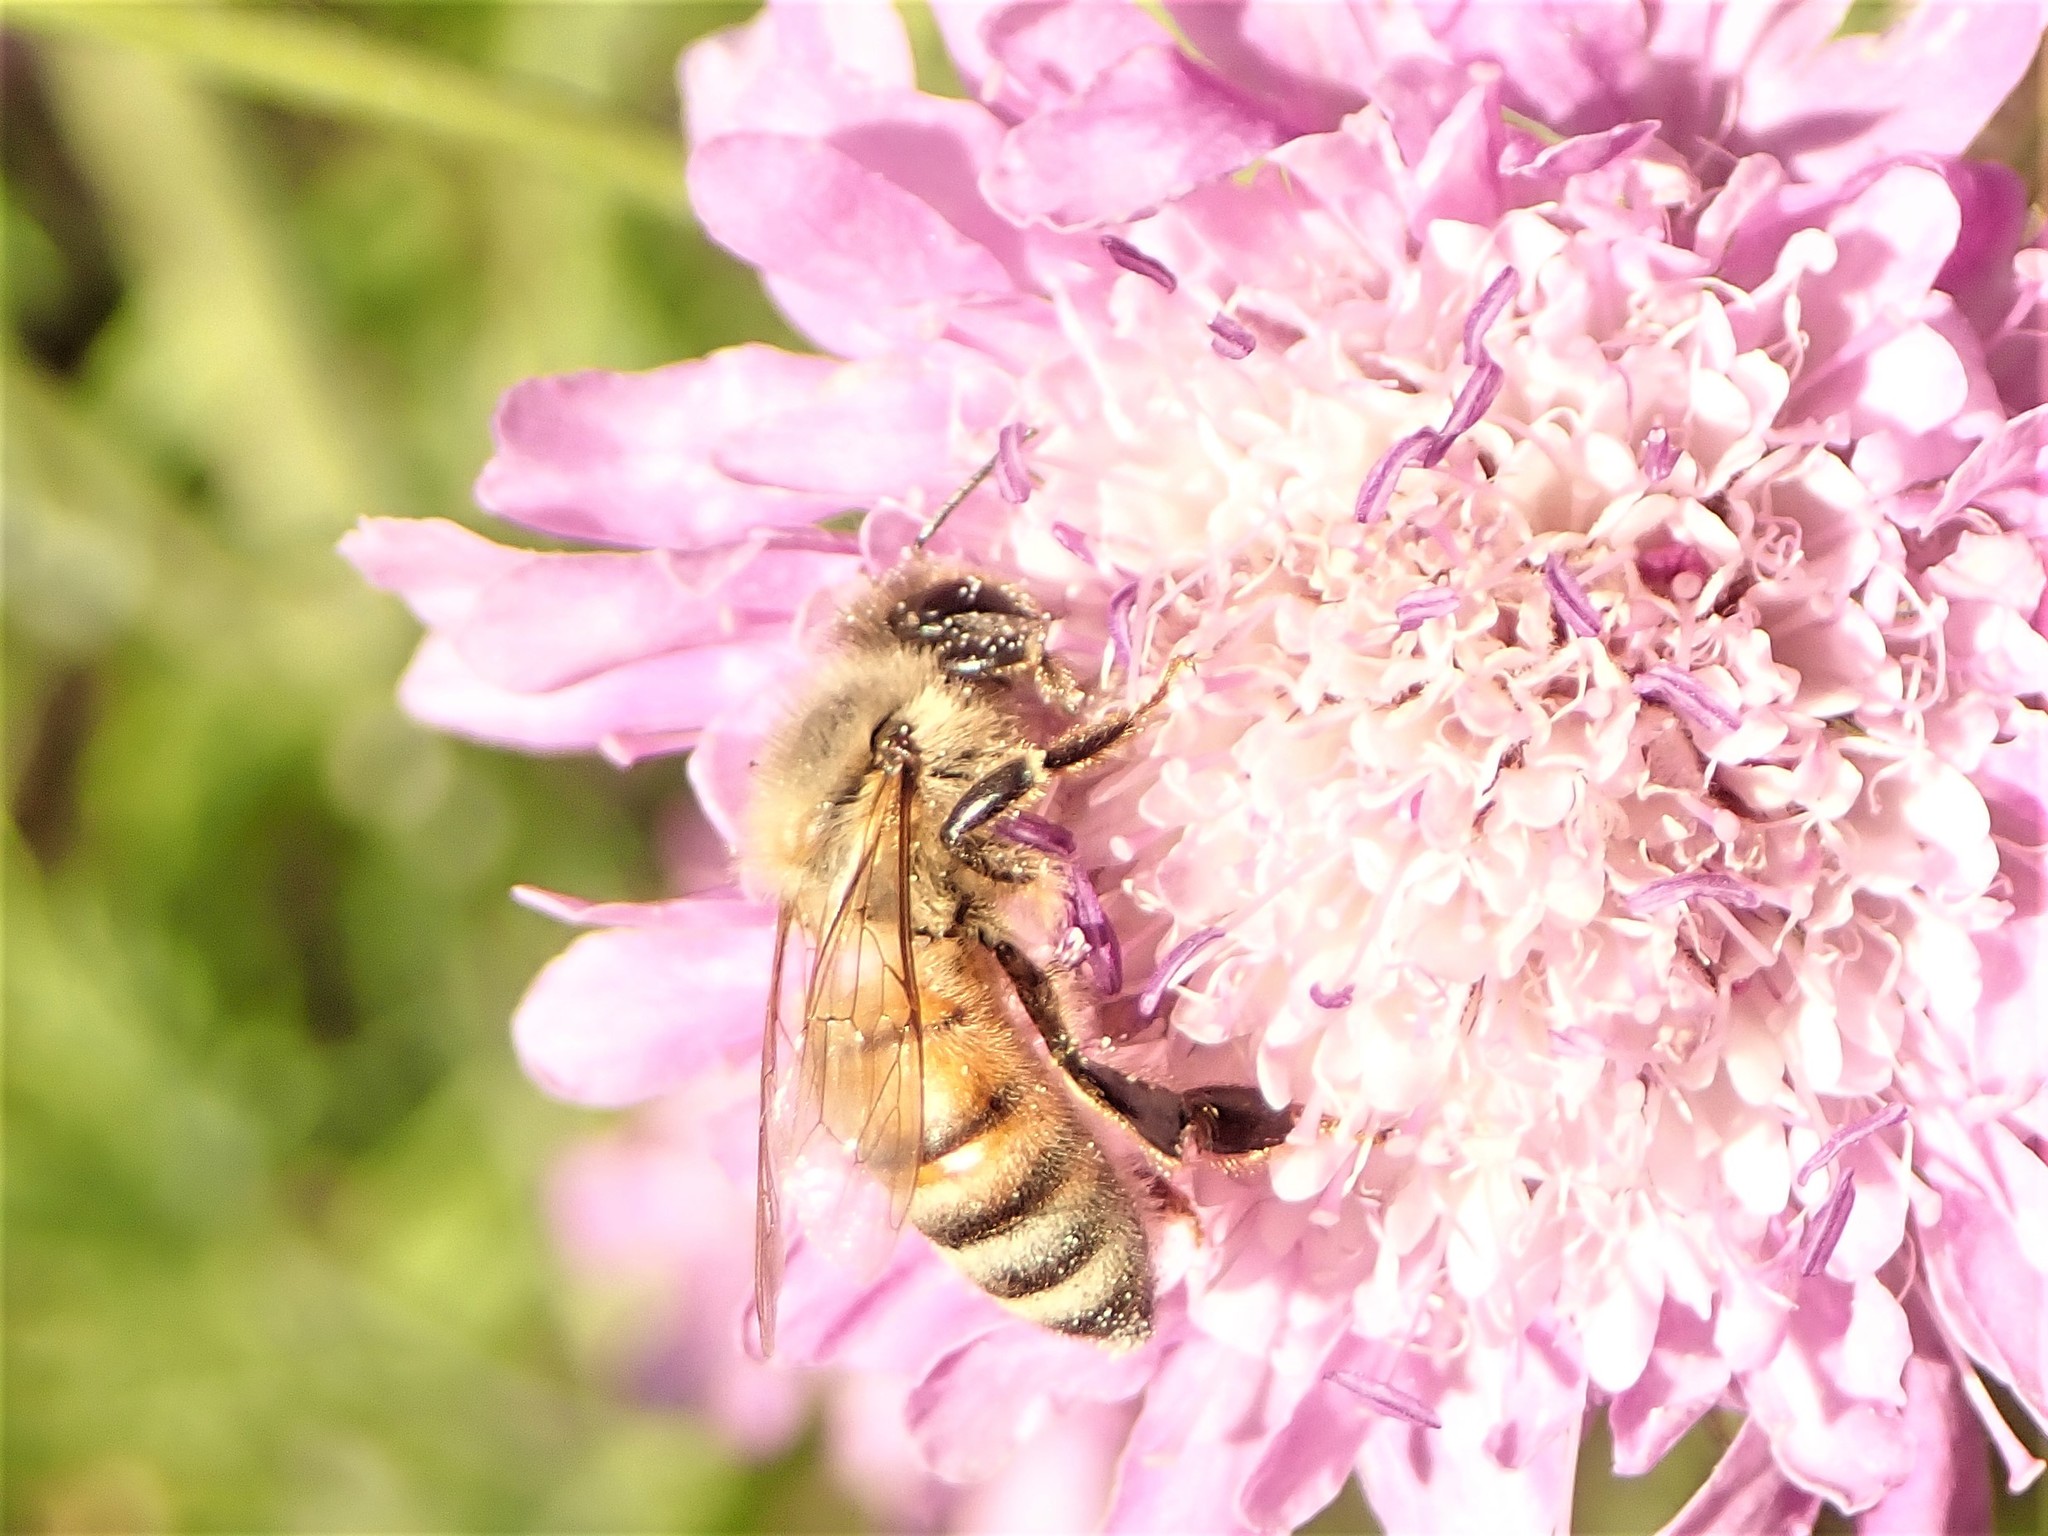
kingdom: Animalia
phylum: Arthropoda
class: Insecta
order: Hymenoptera
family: Apidae
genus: Apis
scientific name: Apis mellifera
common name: Honey bee
